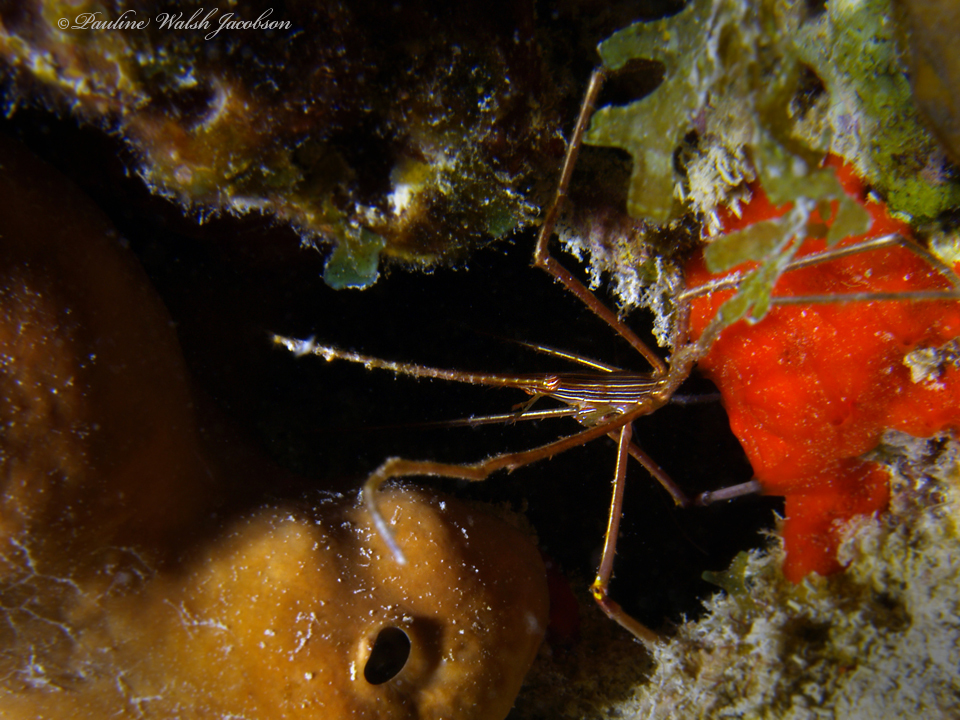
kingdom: Animalia
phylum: Arthropoda
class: Malacostraca
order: Decapoda
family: Inachoididae
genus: Stenorhynchus
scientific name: Stenorhynchus seticornis
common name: Arrow crab
